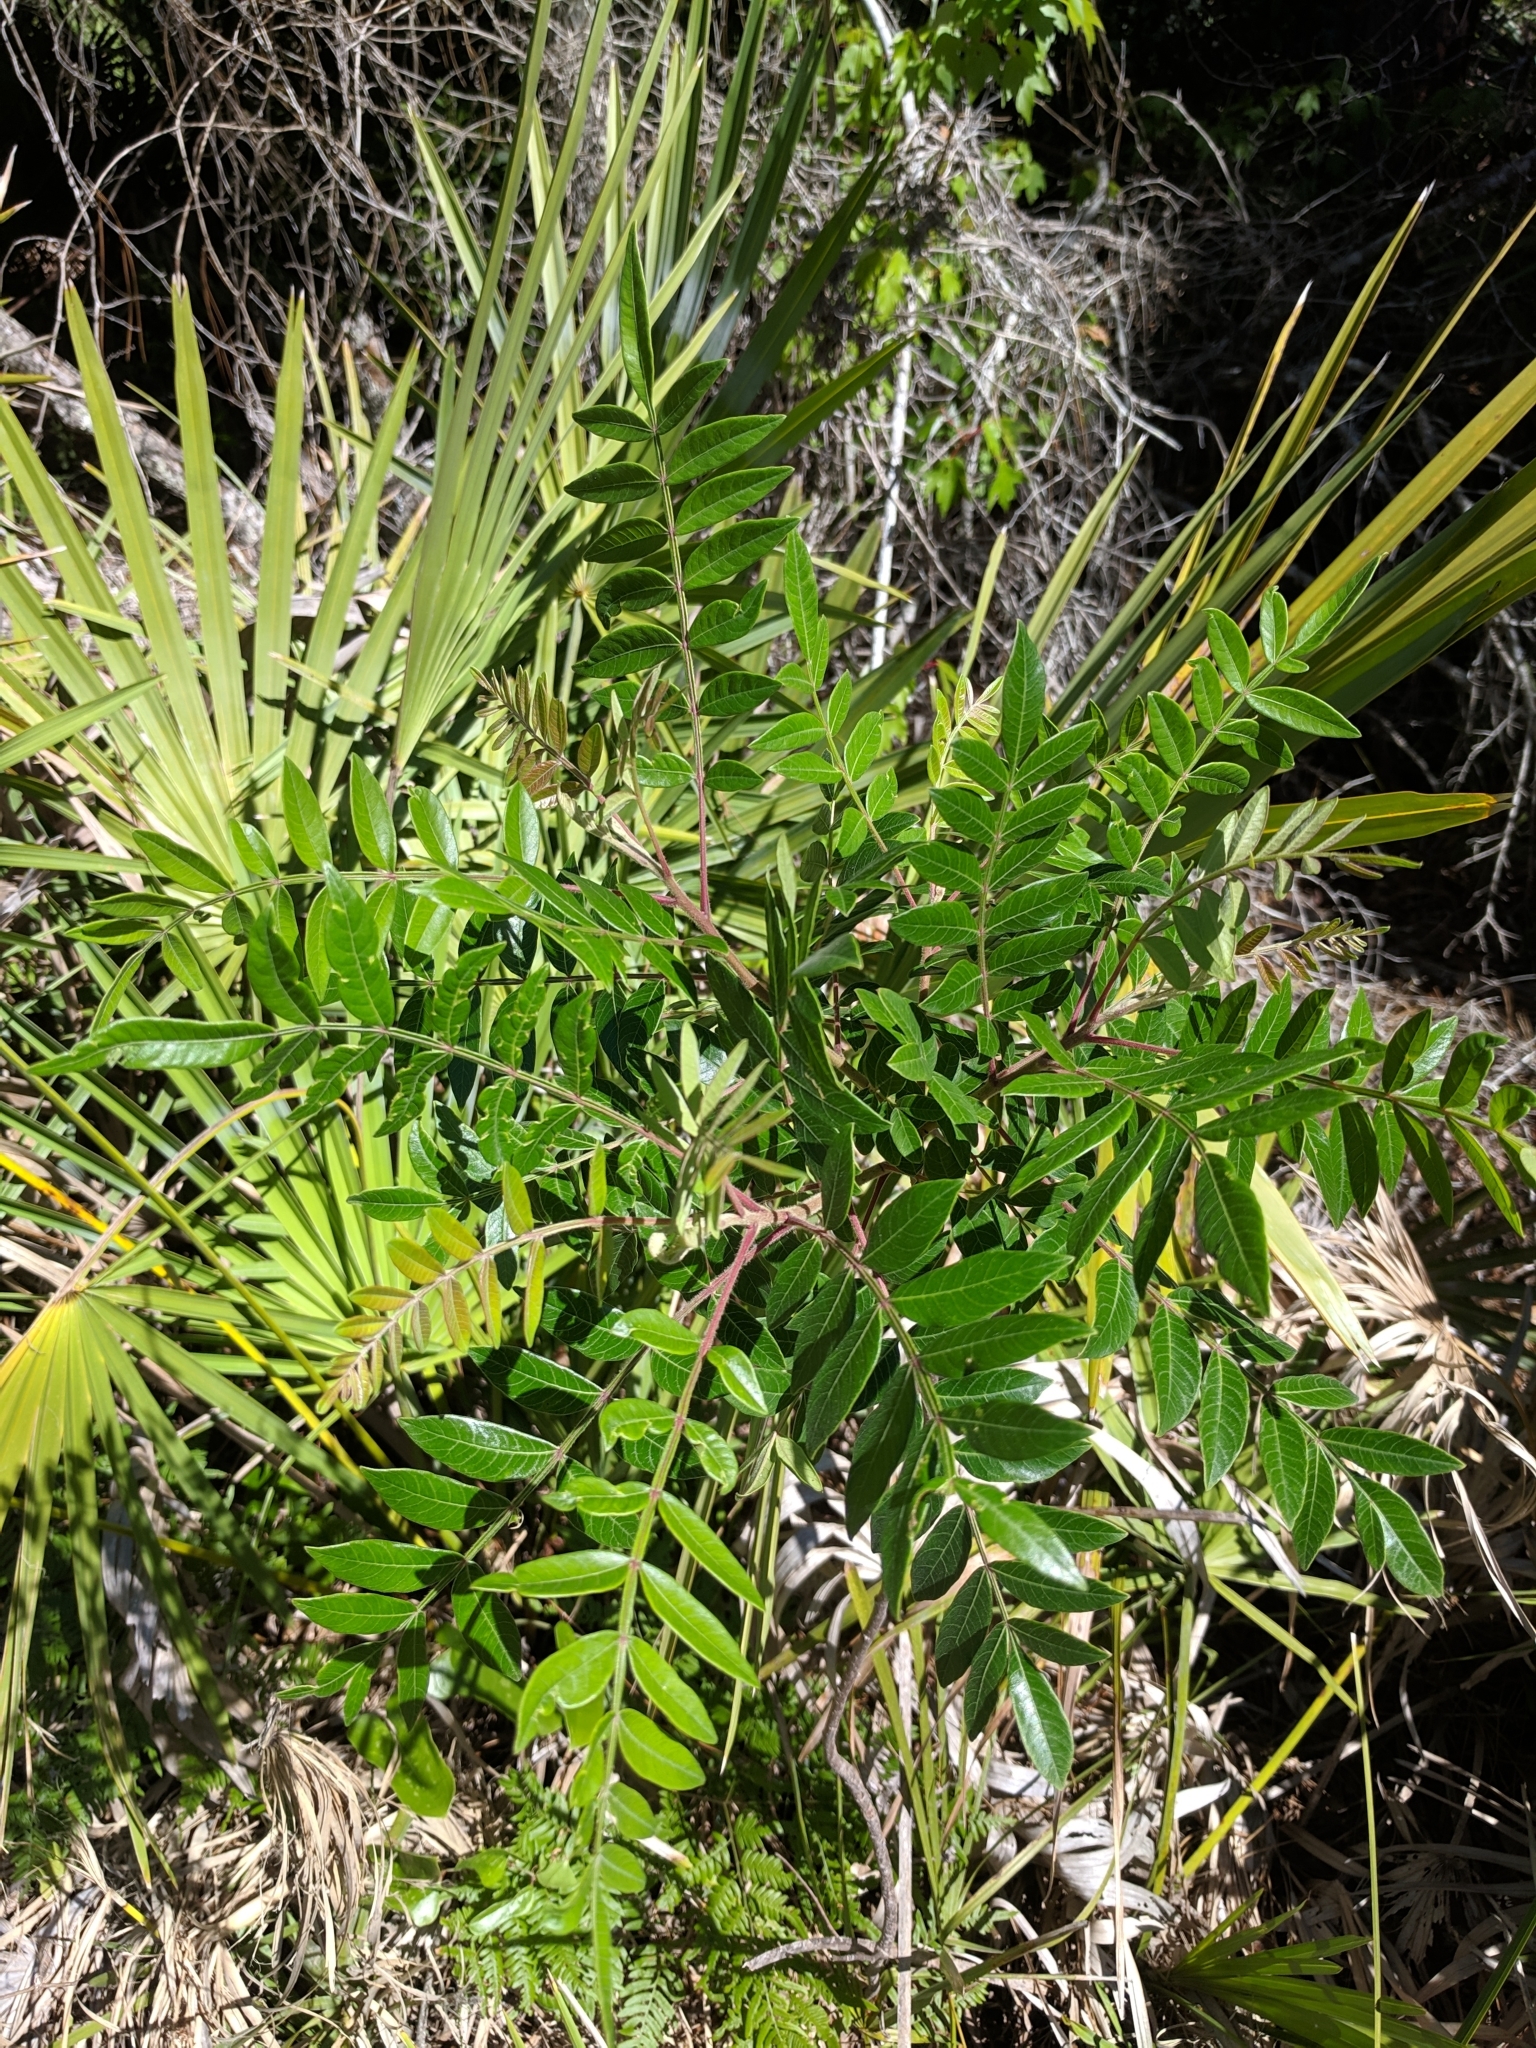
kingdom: Plantae
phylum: Tracheophyta
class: Magnoliopsida
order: Sapindales
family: Anacardiaceae
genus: Rhus
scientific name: Rhus copallina
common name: Shining sumac
